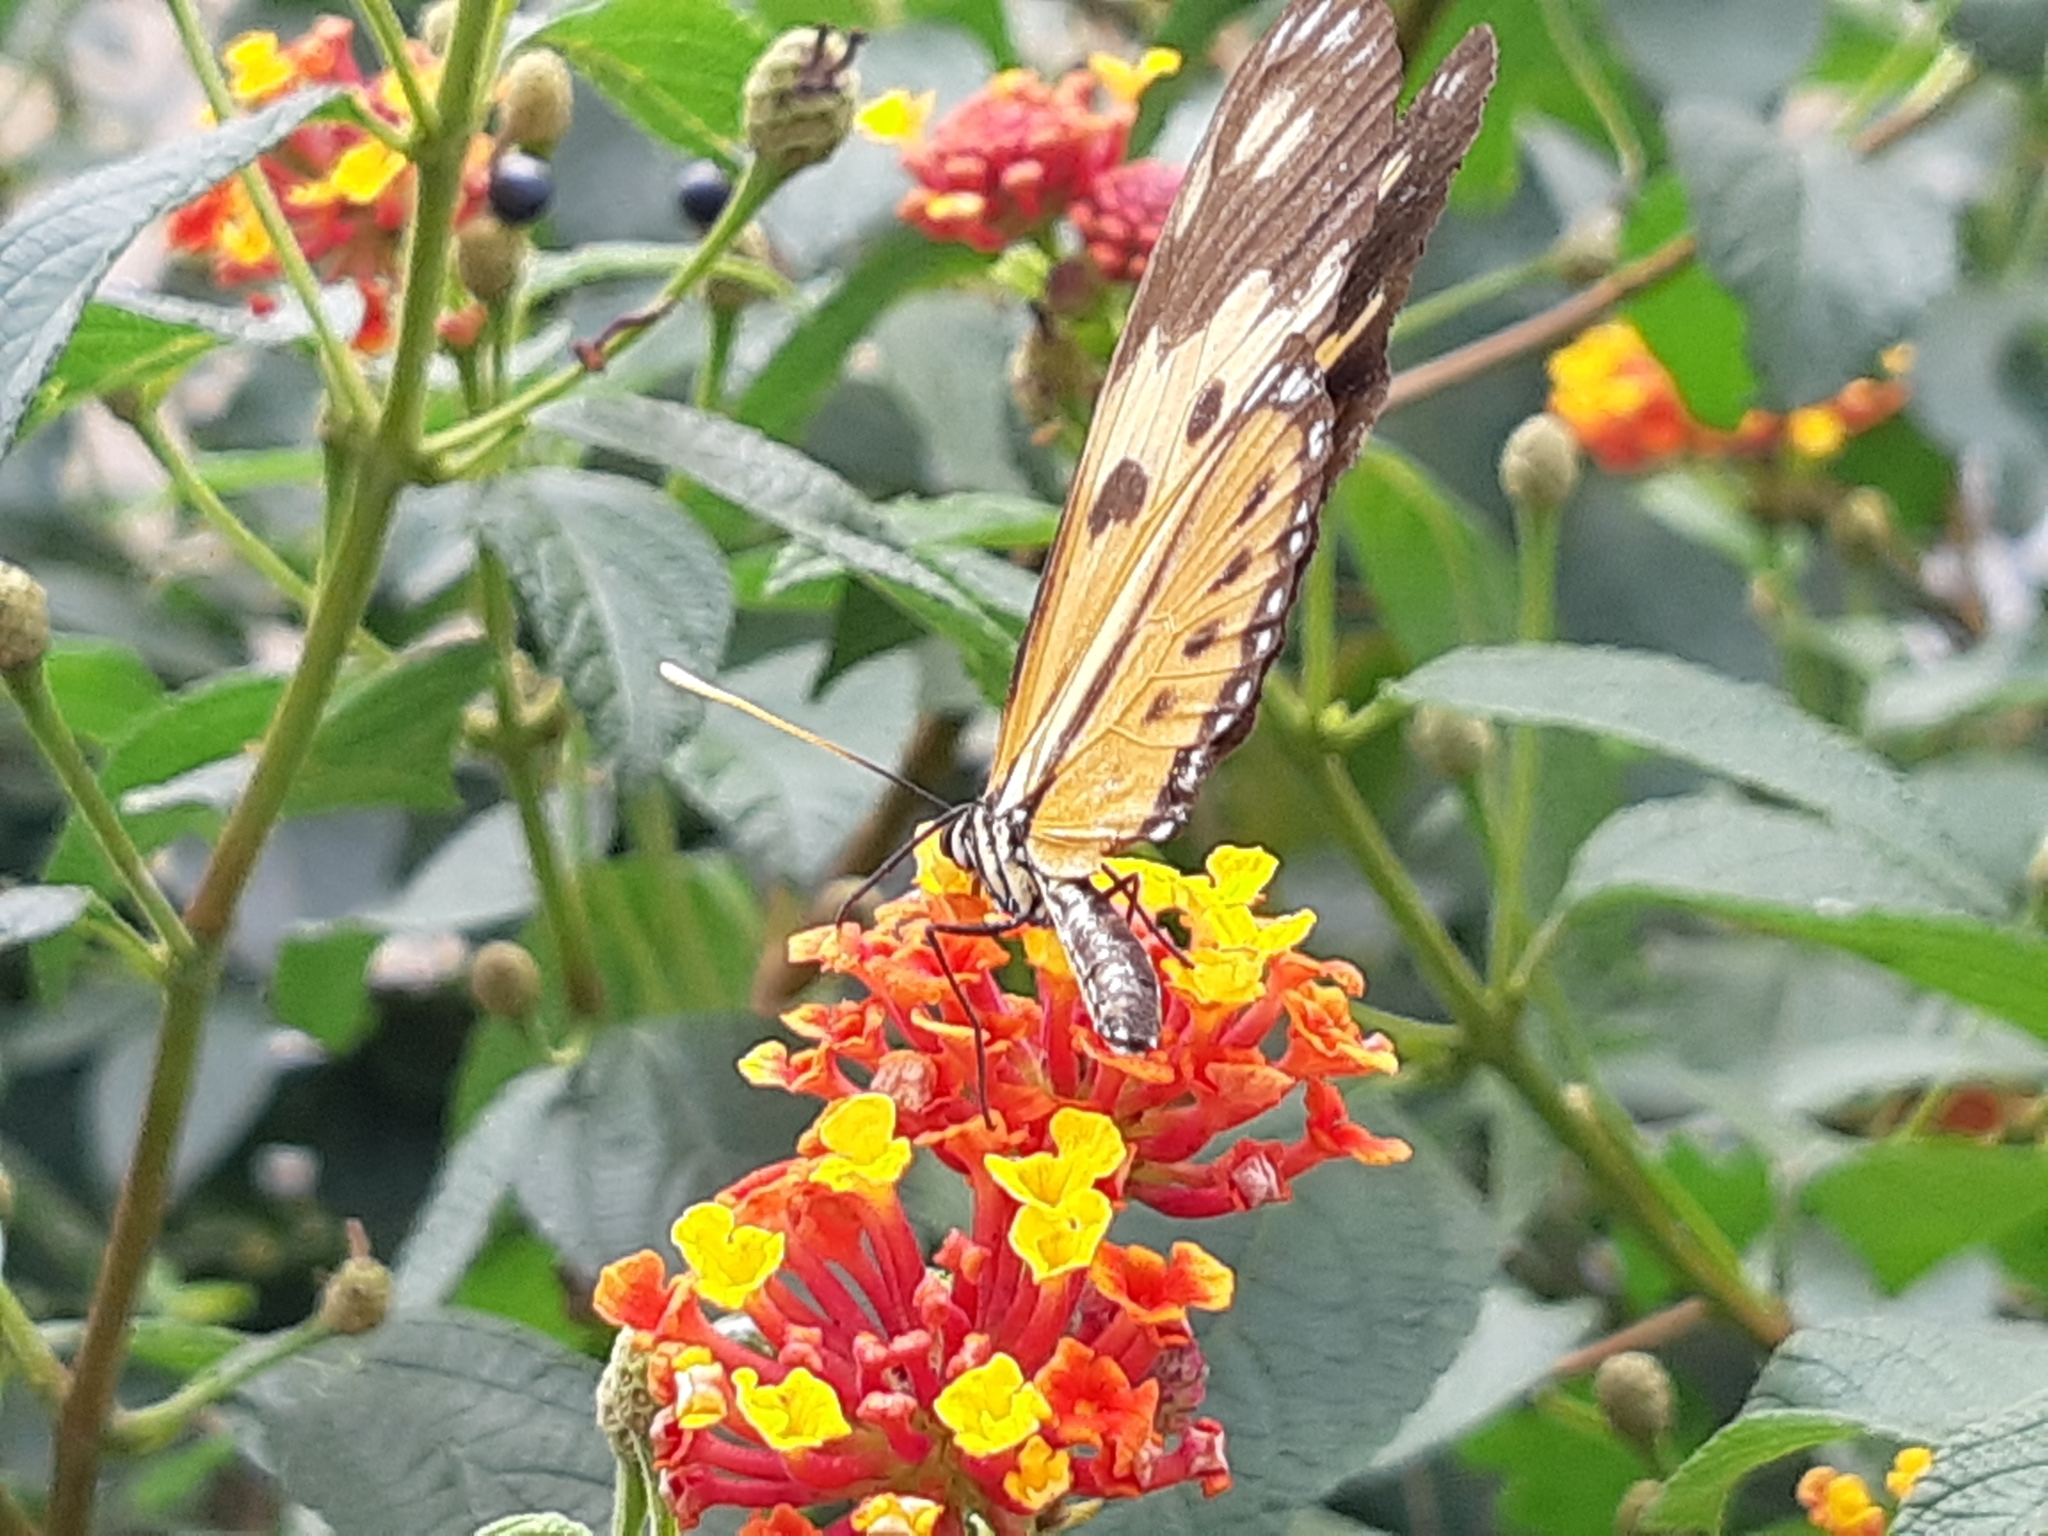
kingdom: Animalia
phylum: Arthropoda
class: Insecta
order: Lepidoptera
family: Nymphalidae
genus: Eueides
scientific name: Eueides isabella
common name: Isabella's longwing
